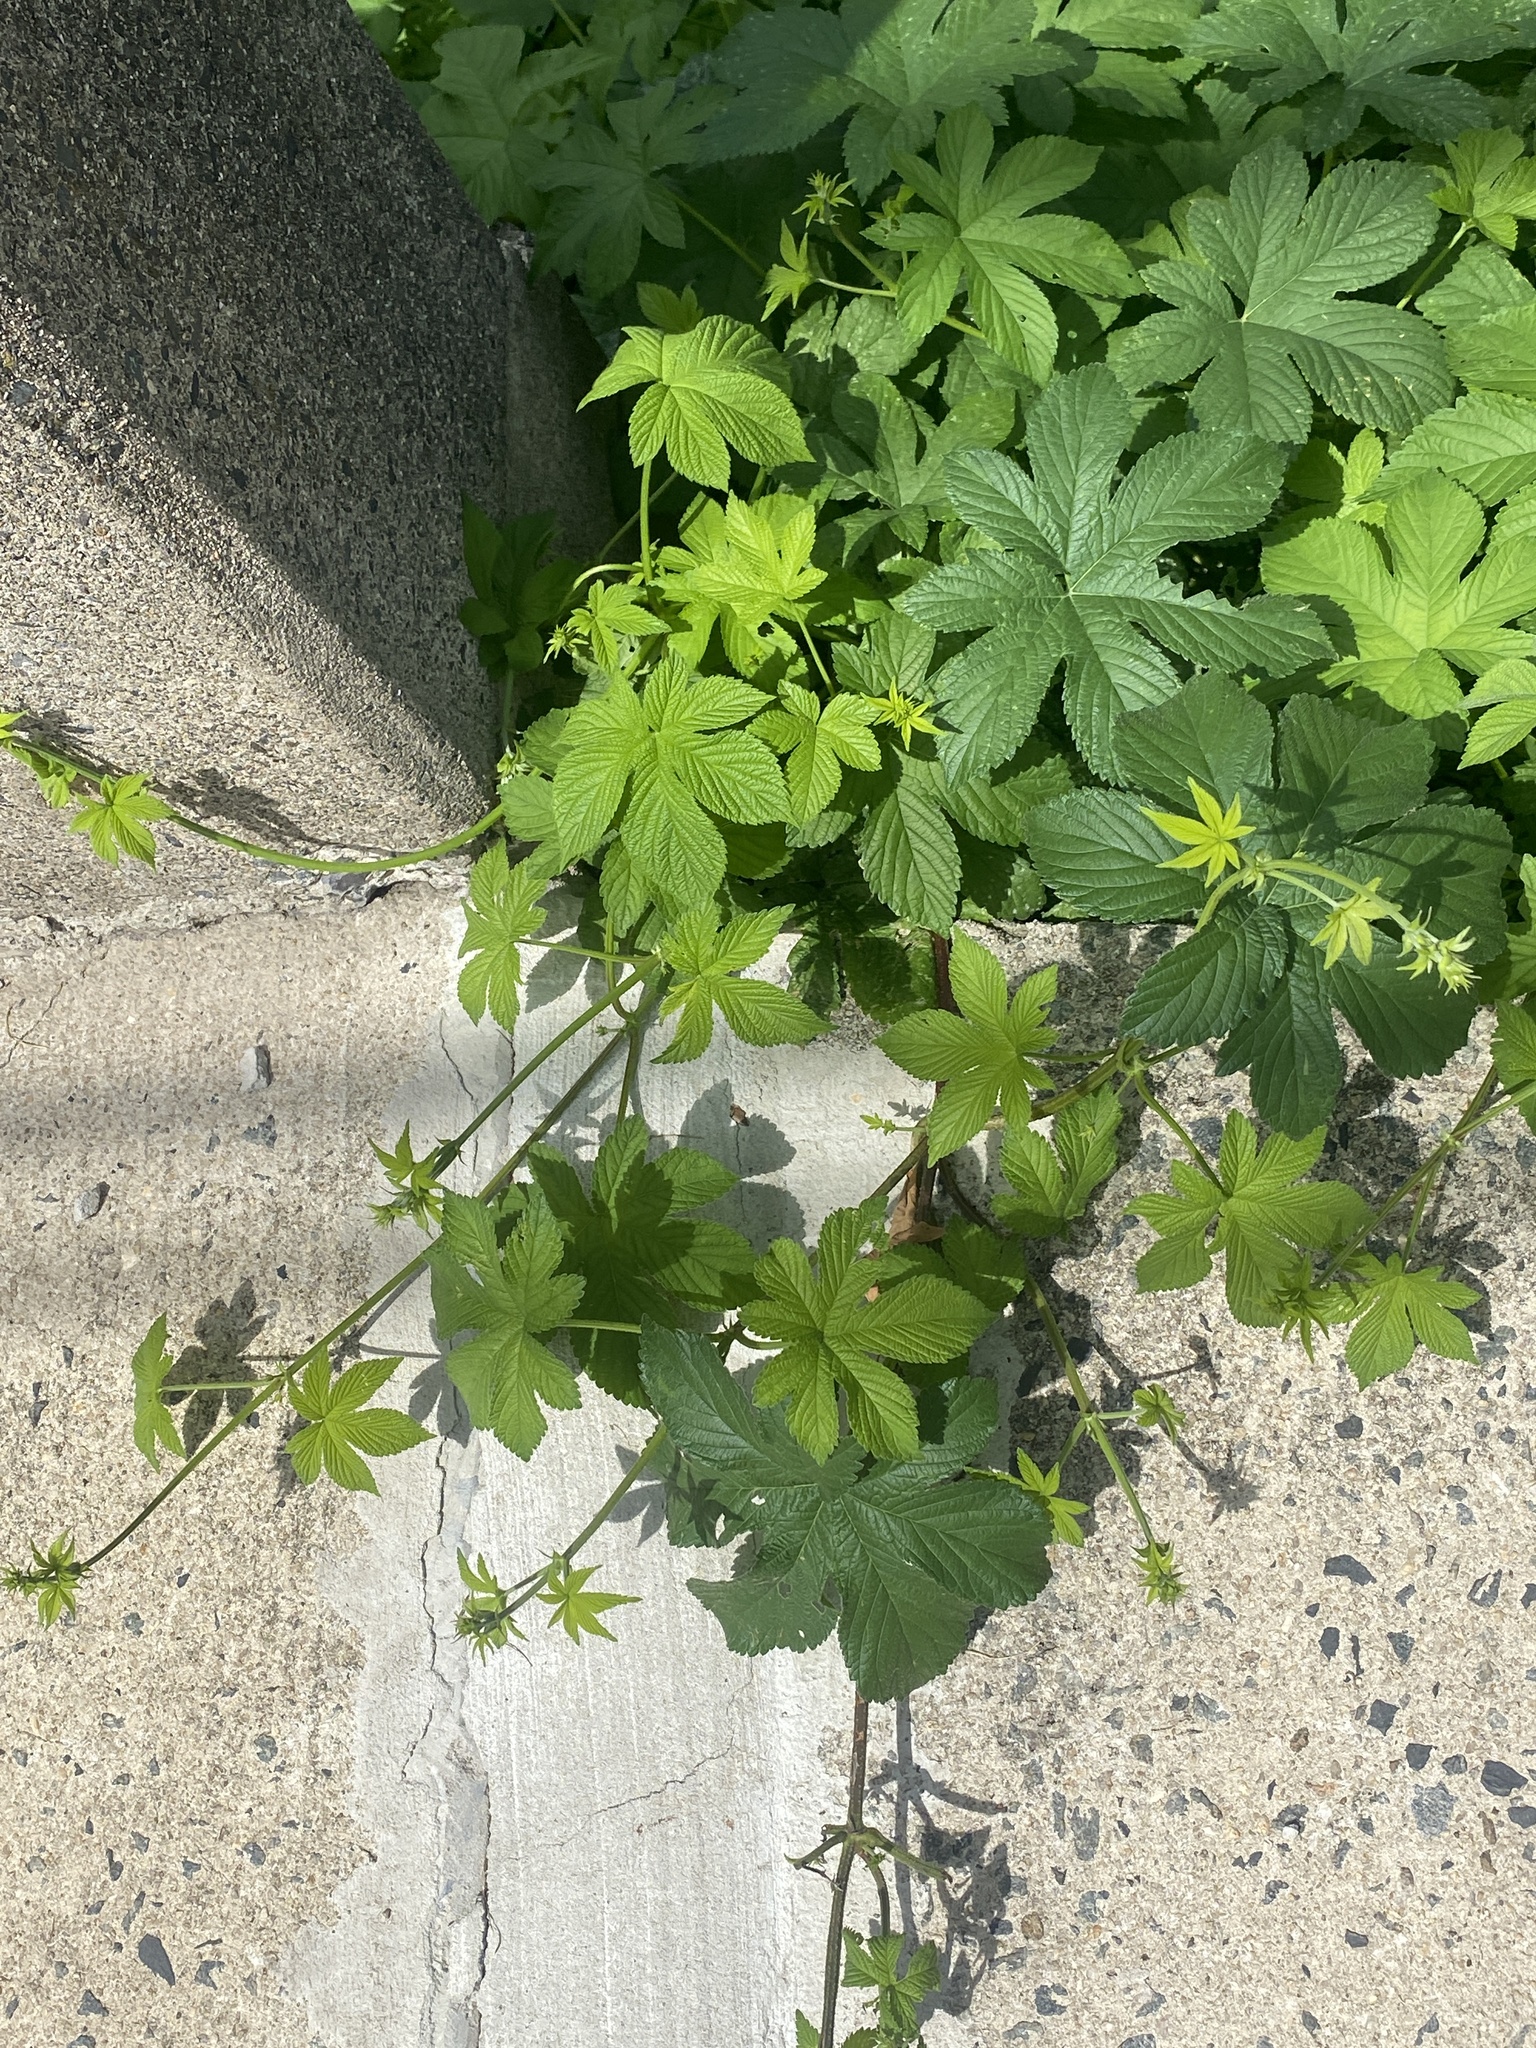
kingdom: Plantae
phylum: Tracheophyta
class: Magnoliopsida
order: Rosales
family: Cannabaceae
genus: Humulus
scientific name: Humulus scandens
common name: Japanese hop
